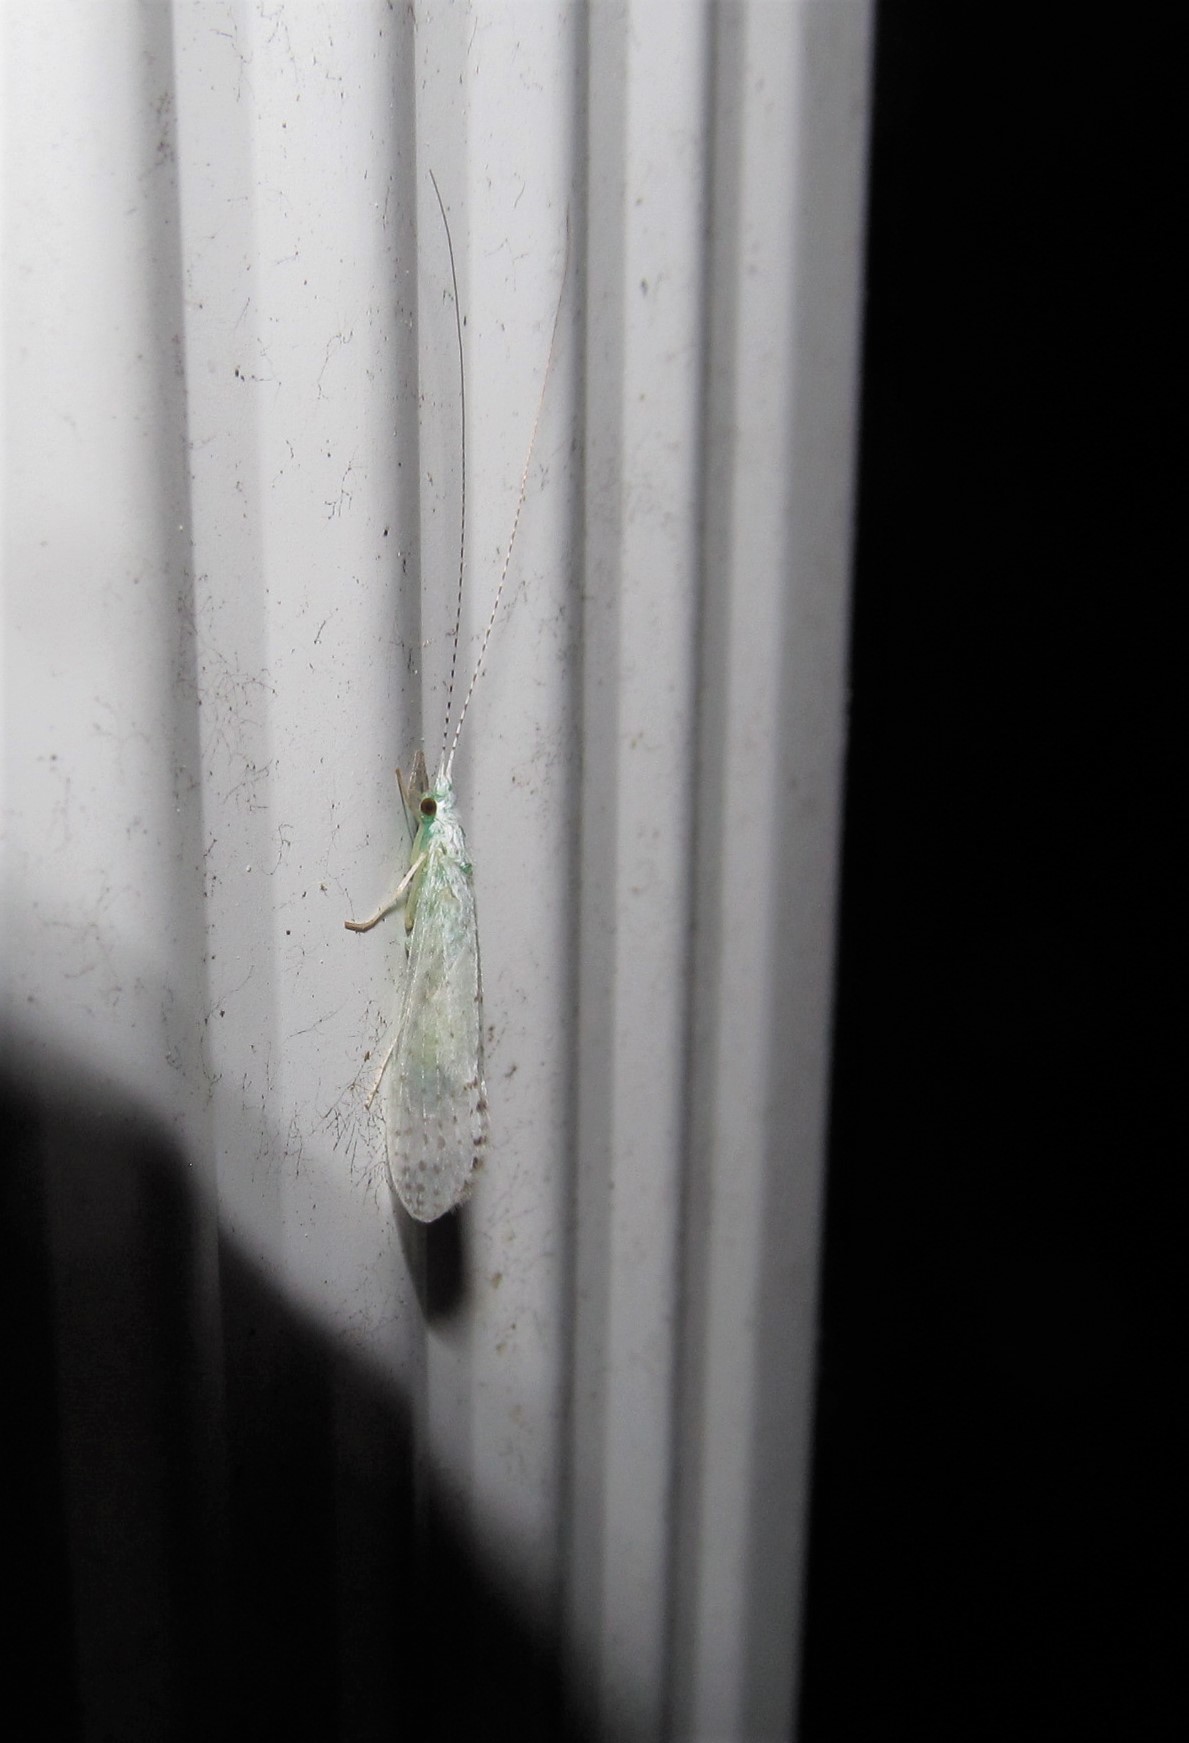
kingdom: Animalia
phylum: Arthropoda
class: Insecta
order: Trichoptera
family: Leptoceridae
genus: Nectopsyche
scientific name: Nectopsyche candida
